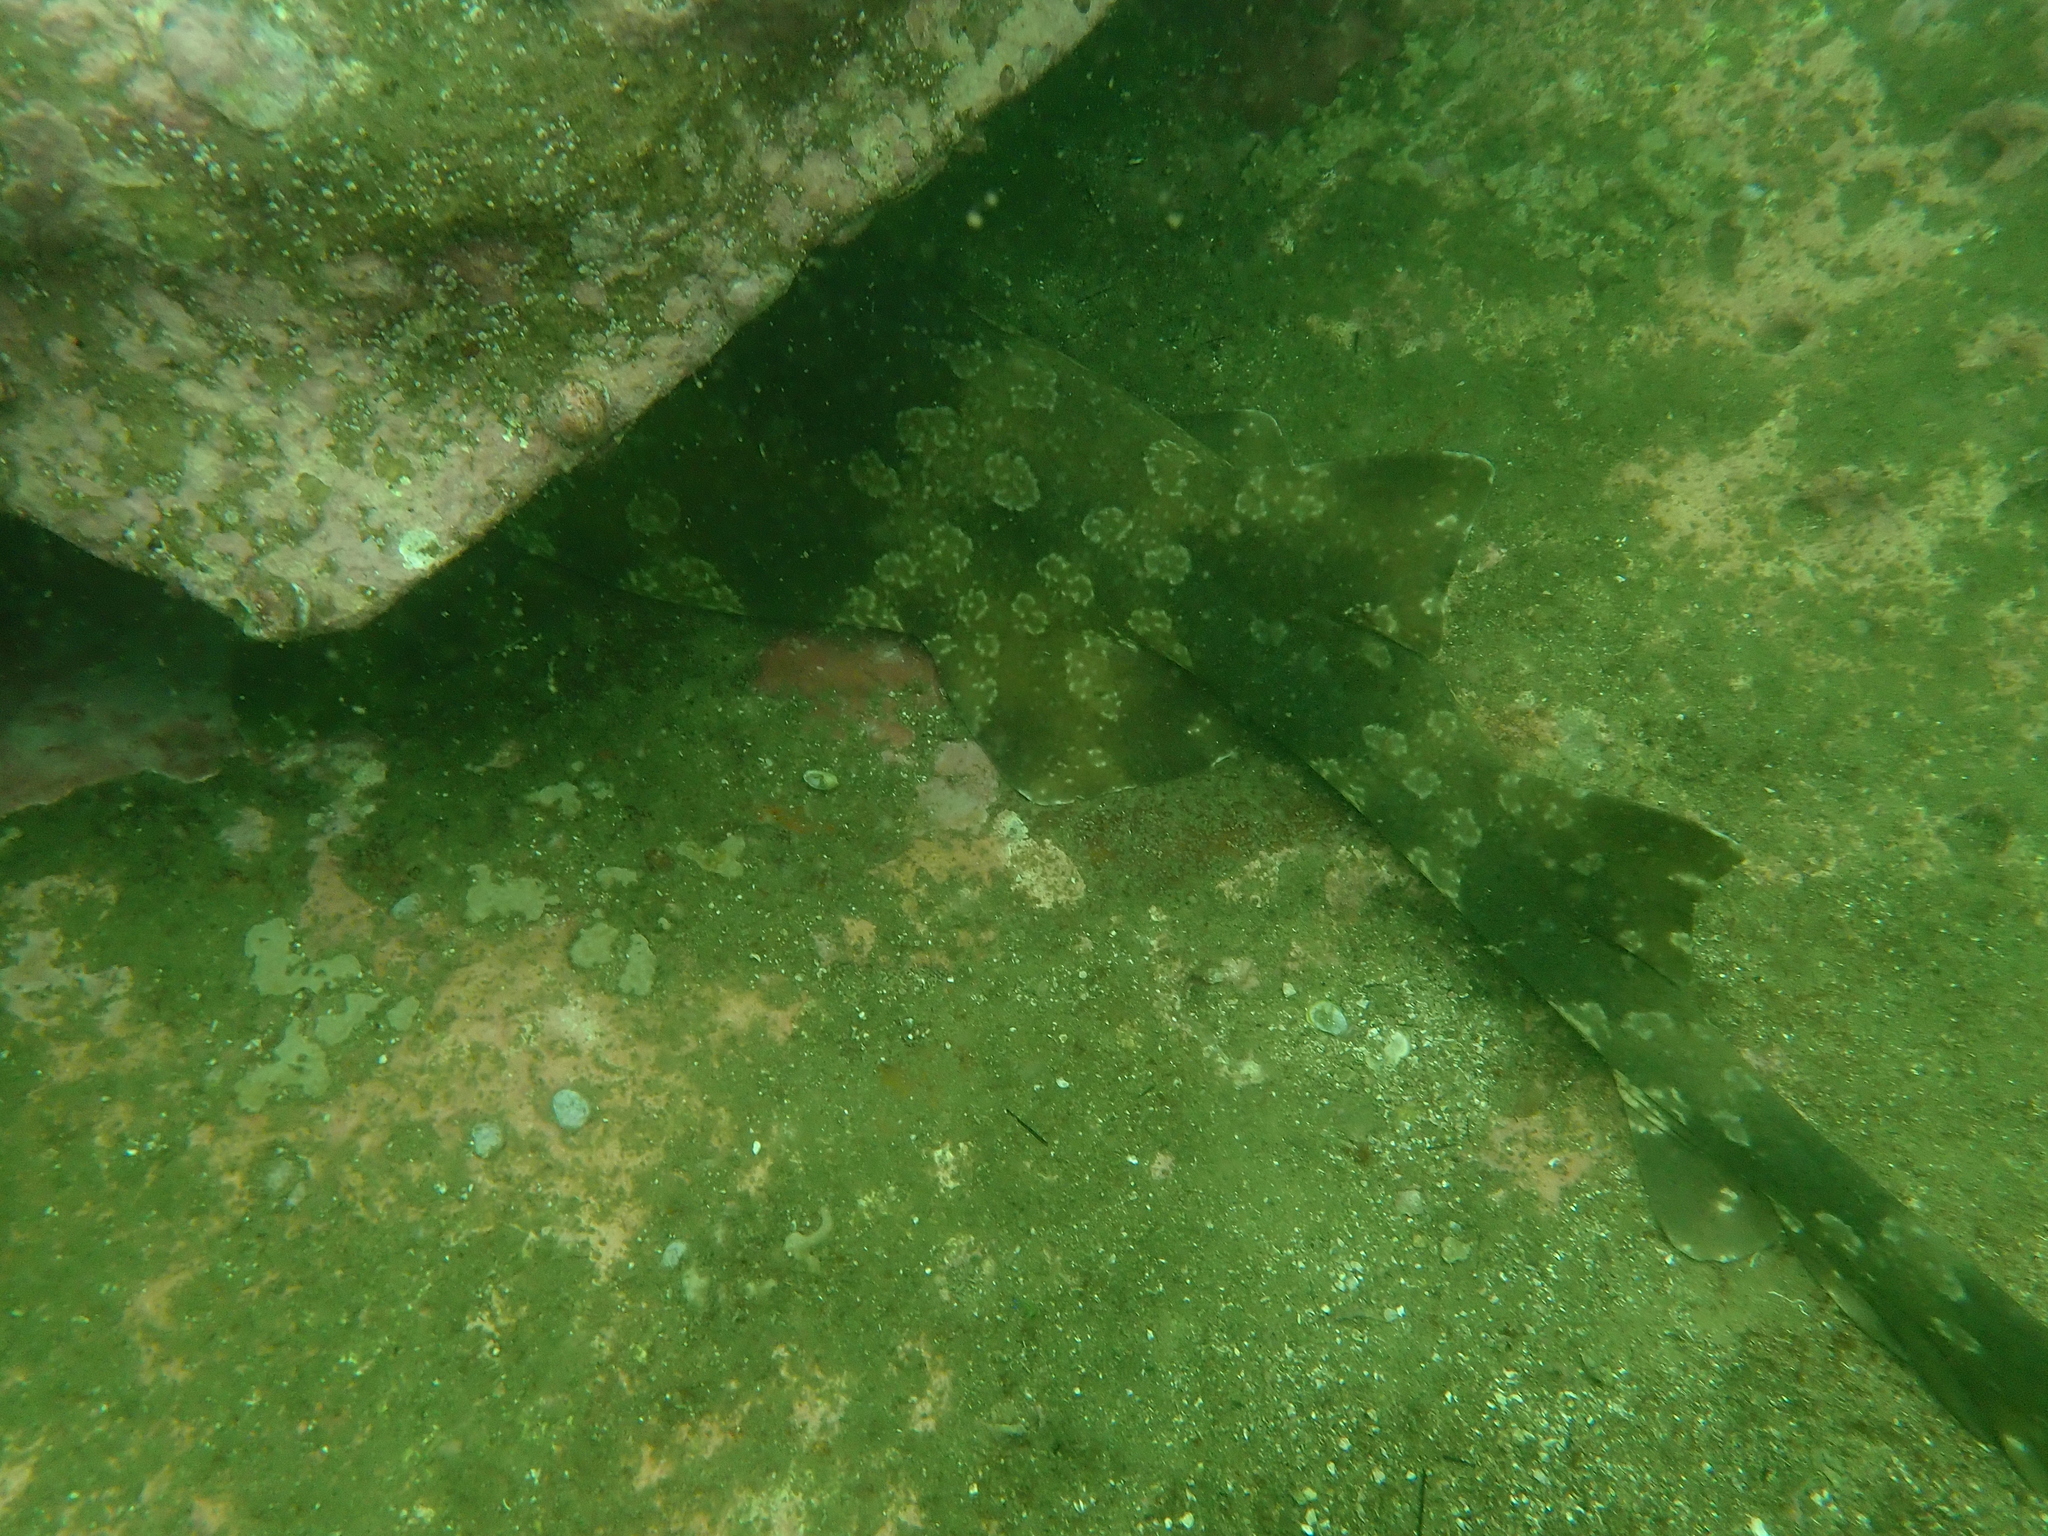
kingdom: Animalia
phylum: Chordata
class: Elasmobranchii
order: Orectolobiformes
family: Orectolobidae
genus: Orectolobus
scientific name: Orectolobus maculatus
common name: Spotted wobbegong
